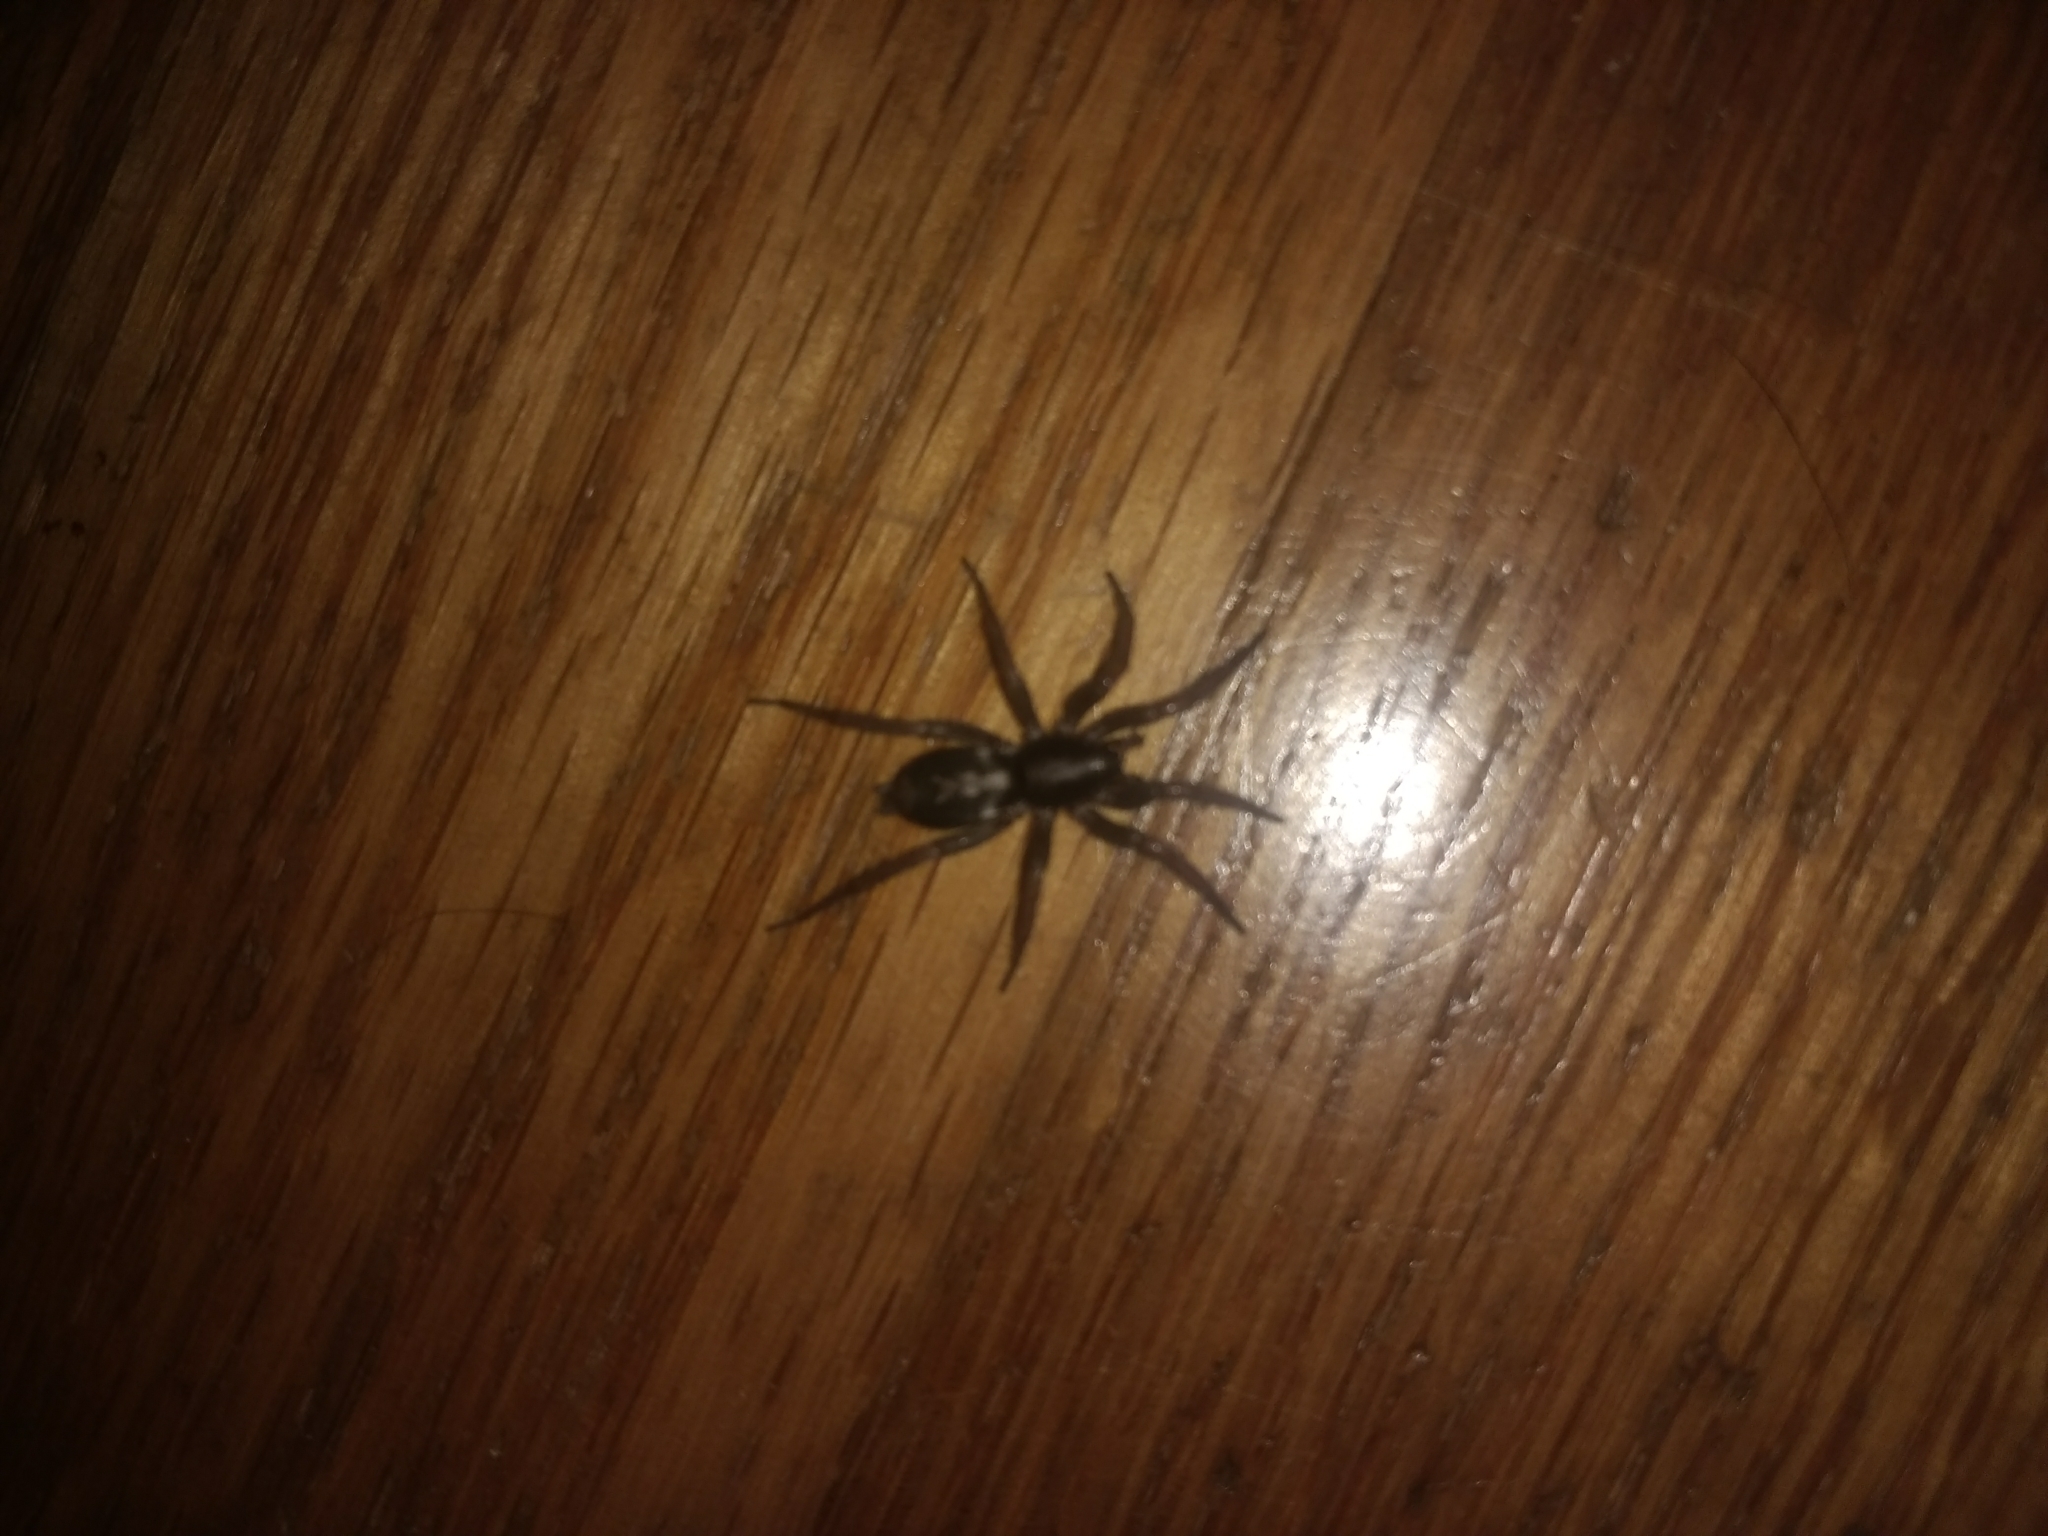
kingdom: Animalia
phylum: Arthropoda
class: Arachnida
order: Araneae
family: Gnaphosidae
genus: Herpyllus
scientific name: Herpyllus ecclesiasticus
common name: Eastern parson spider
